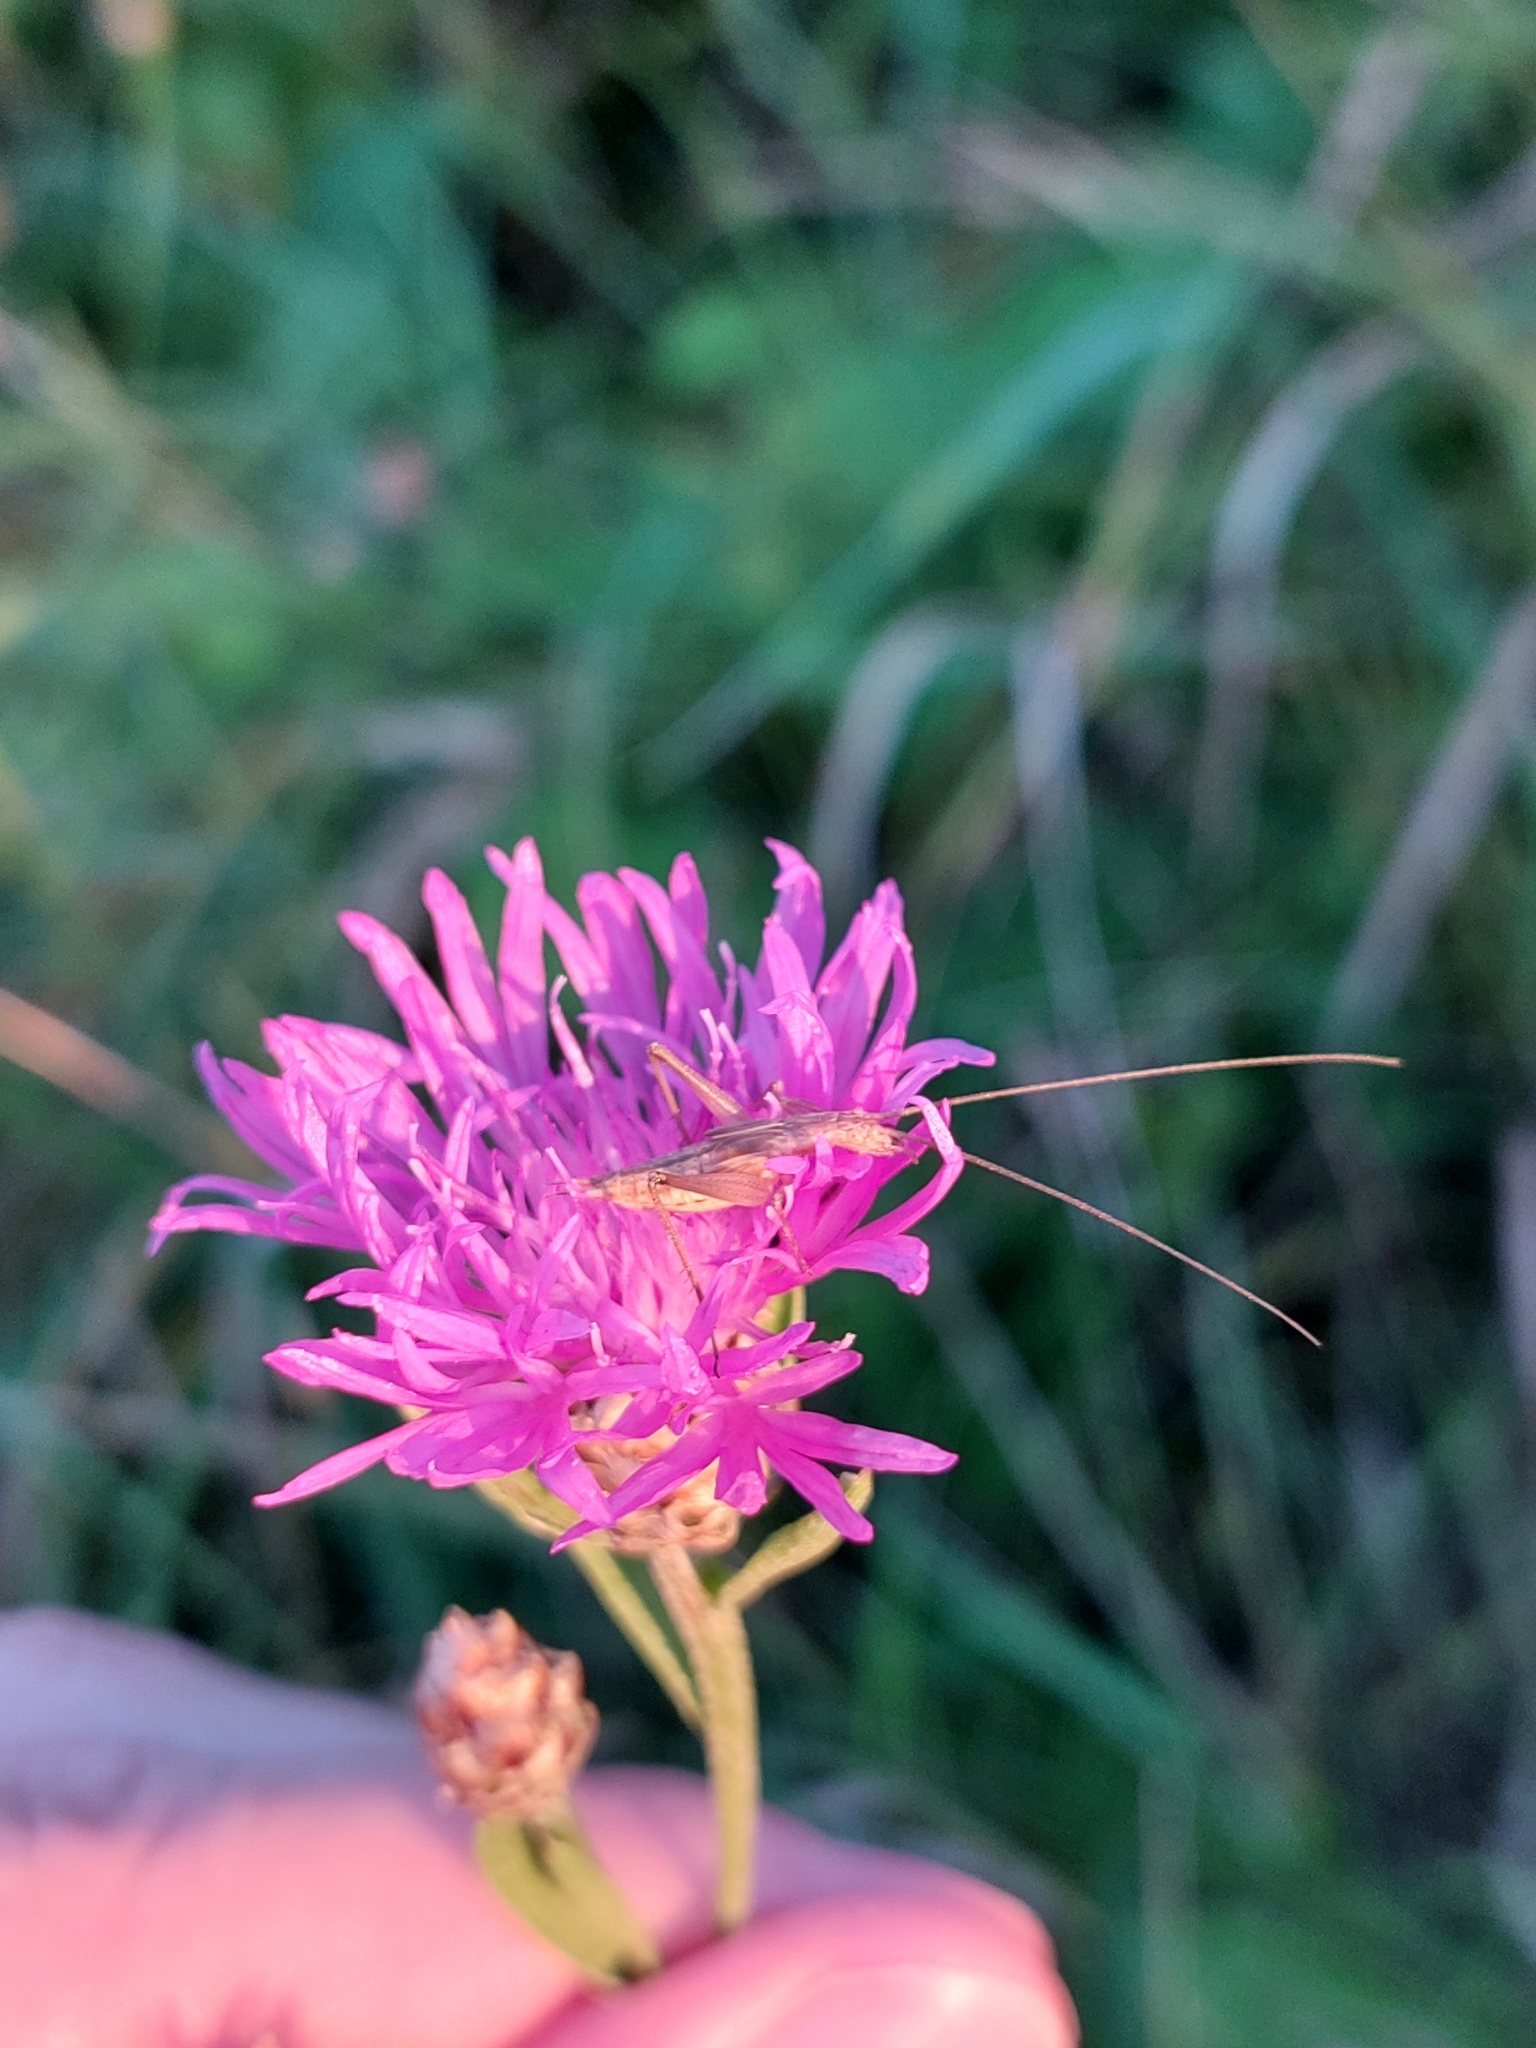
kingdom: Animalia
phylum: Arthropoda
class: Insecta
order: Orthoptera
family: Gryllidae
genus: Oecanthus
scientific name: Oecanthus pellucens
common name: Tree-cricket
